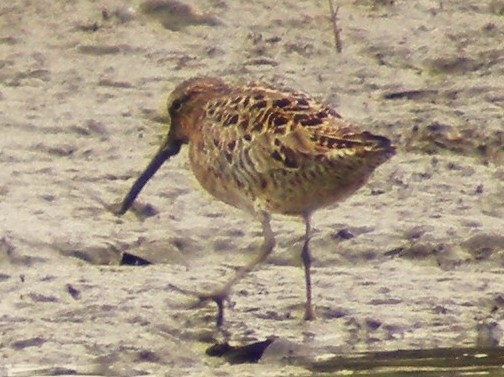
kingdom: Animalia
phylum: Chordata
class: Aves
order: Charadriiformes
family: Scolopacidae
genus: Limnodromus
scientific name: Limnodromus griseus
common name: Short-billed dowitcher
